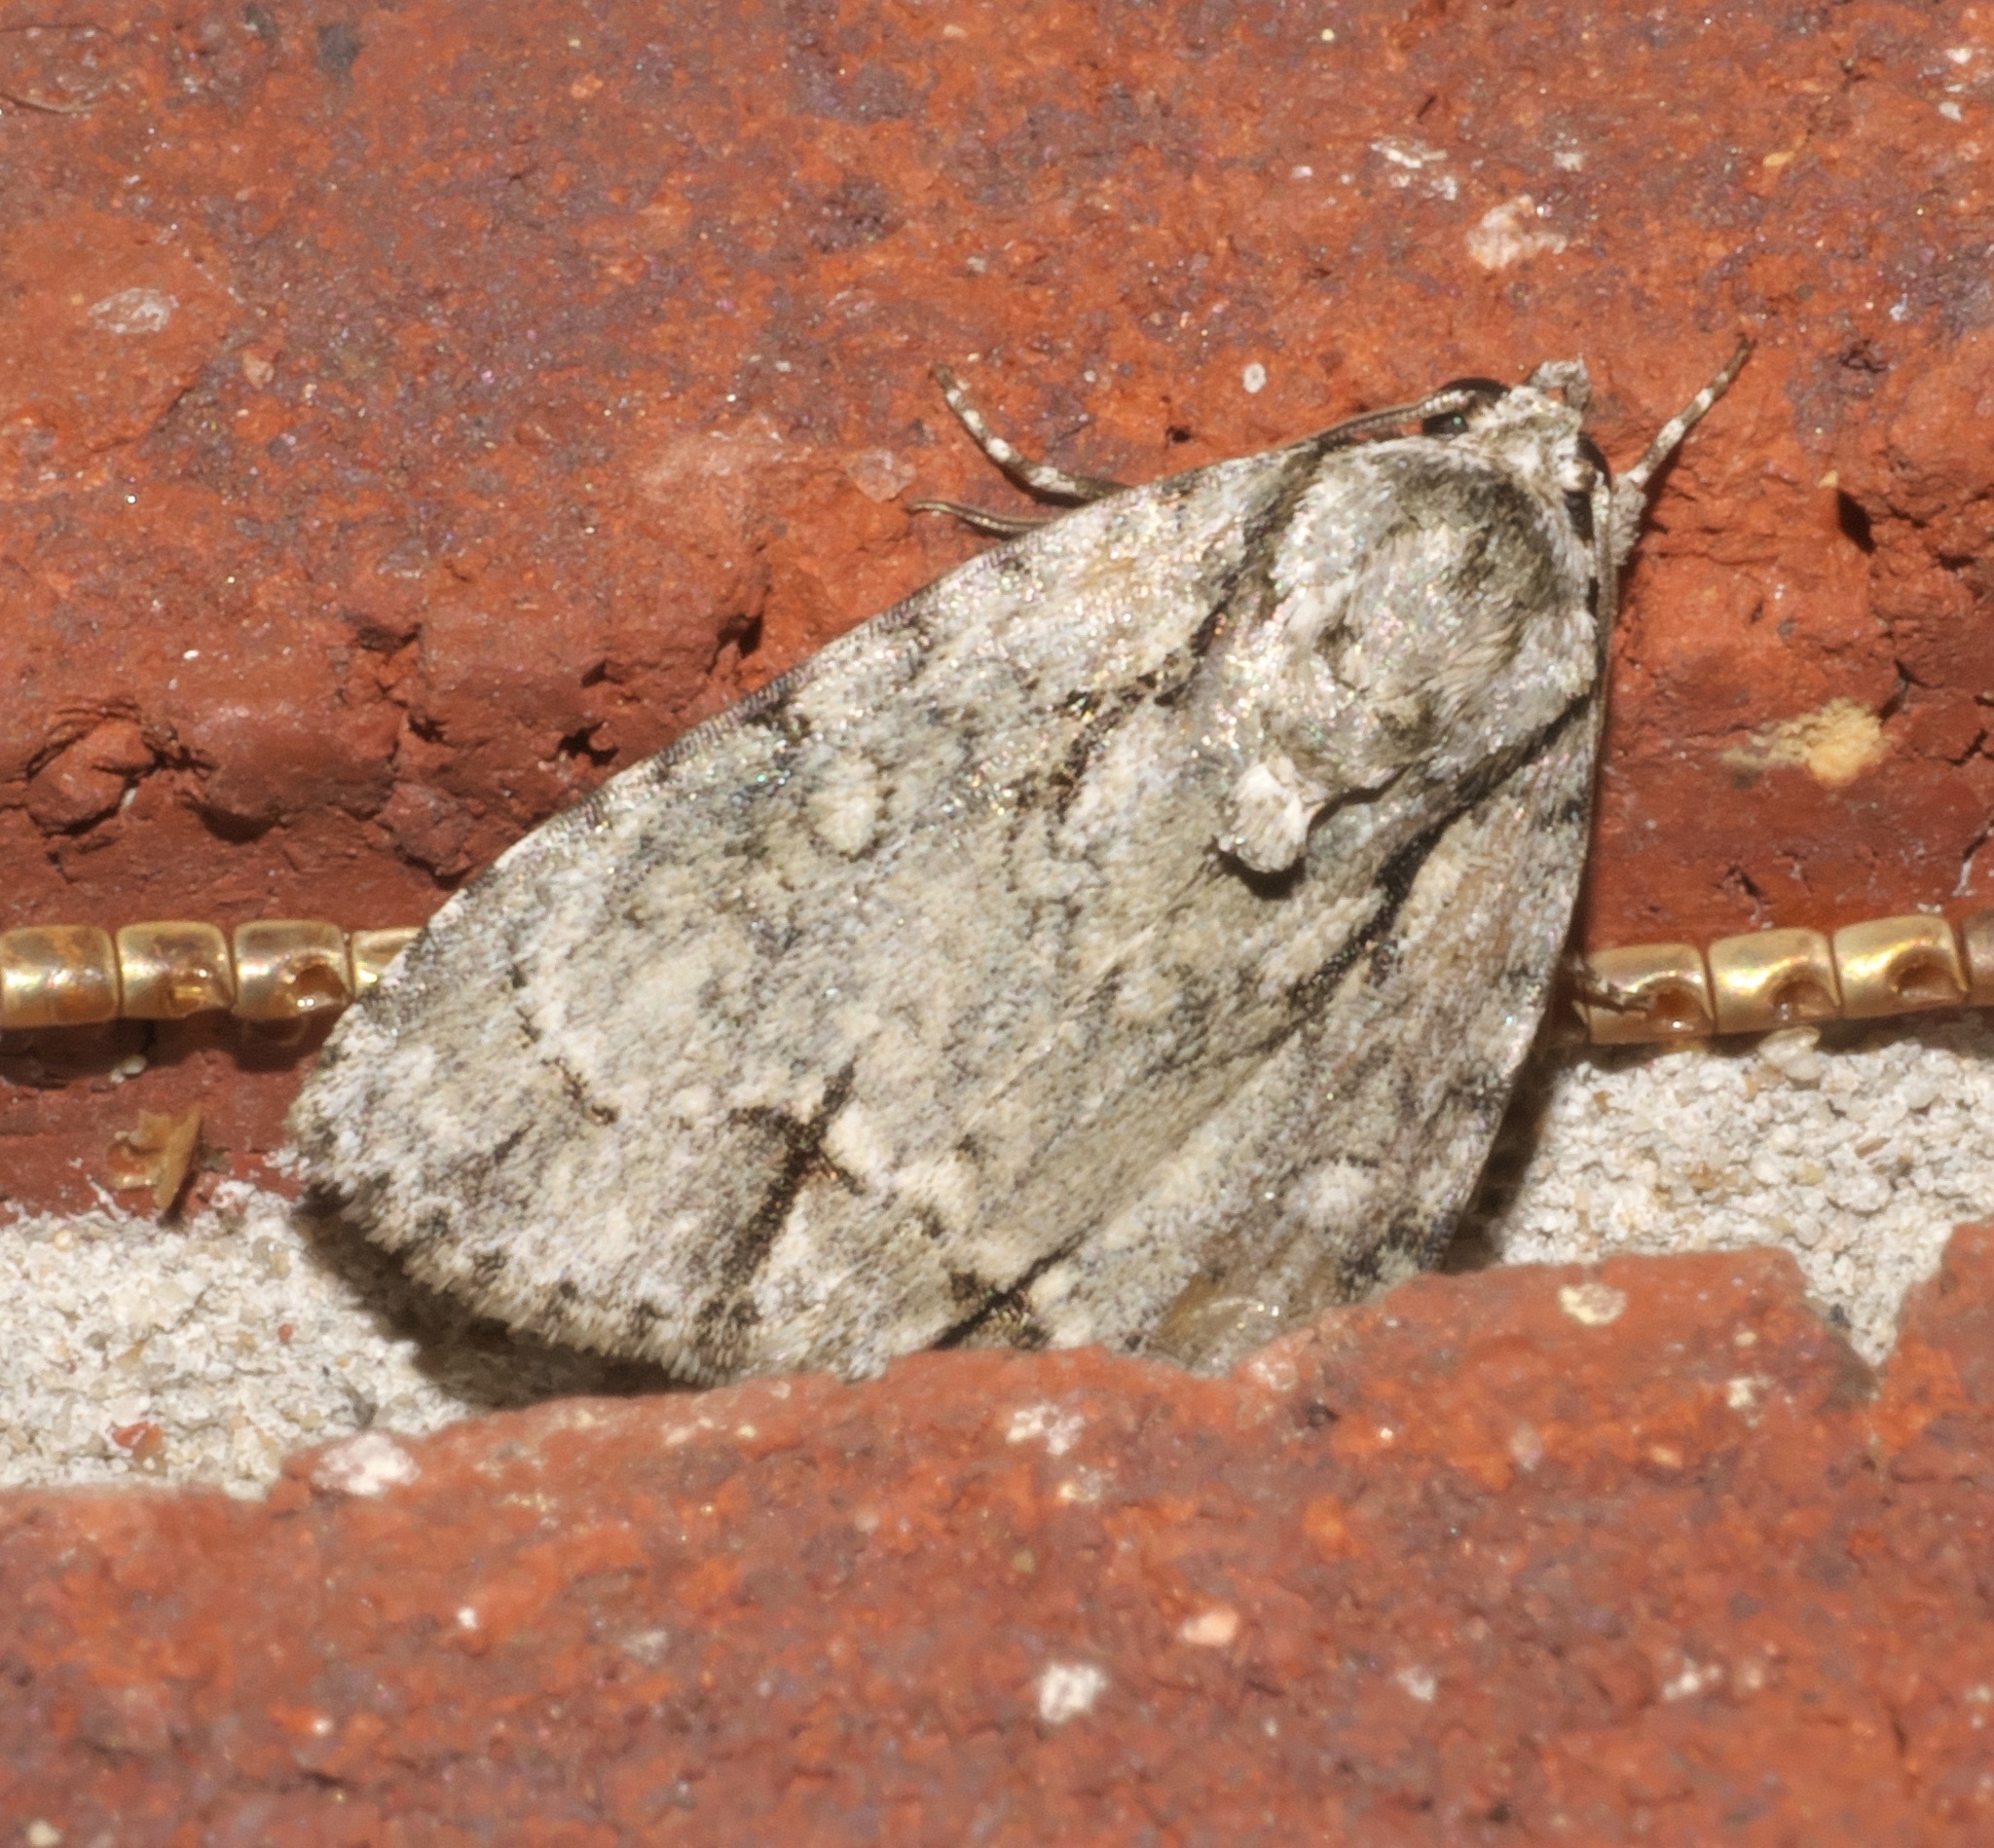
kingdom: Animalia
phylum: Arthropoda
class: Insecta
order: Lepidoptera
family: Noctuidae
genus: Acronicta
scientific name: Acronicta vinnula
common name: Delightful dagger
